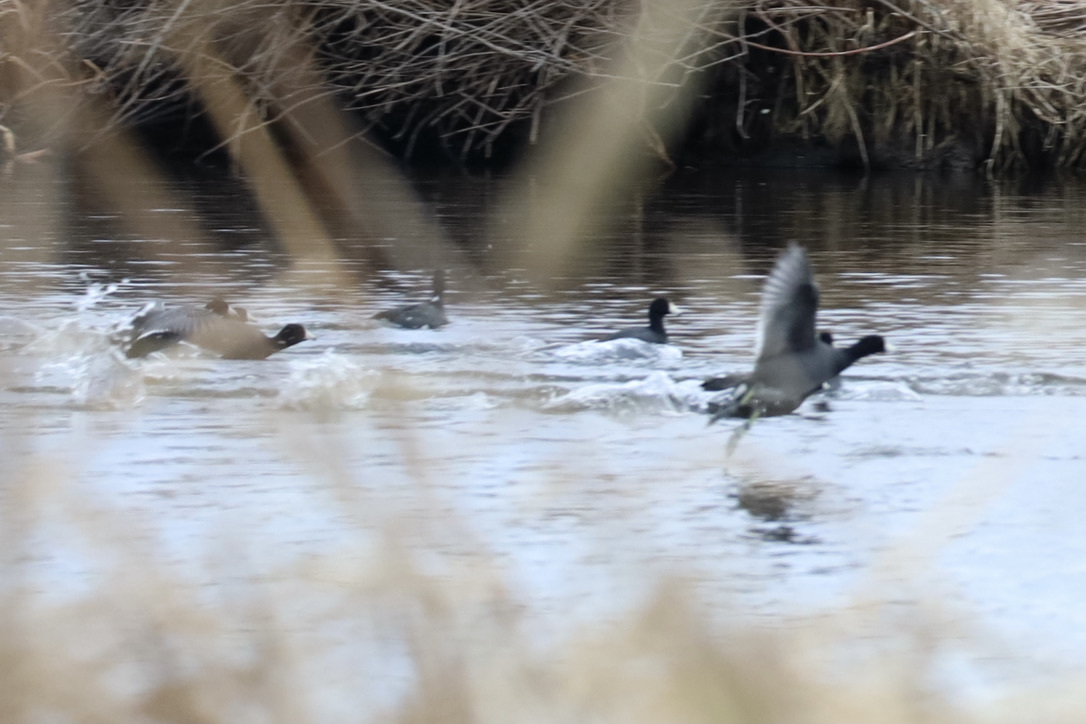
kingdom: Animalia
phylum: Chordata
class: Aves
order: Gruiformes
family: Rallidae
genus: Fulica
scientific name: Fulica americana
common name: American coot
